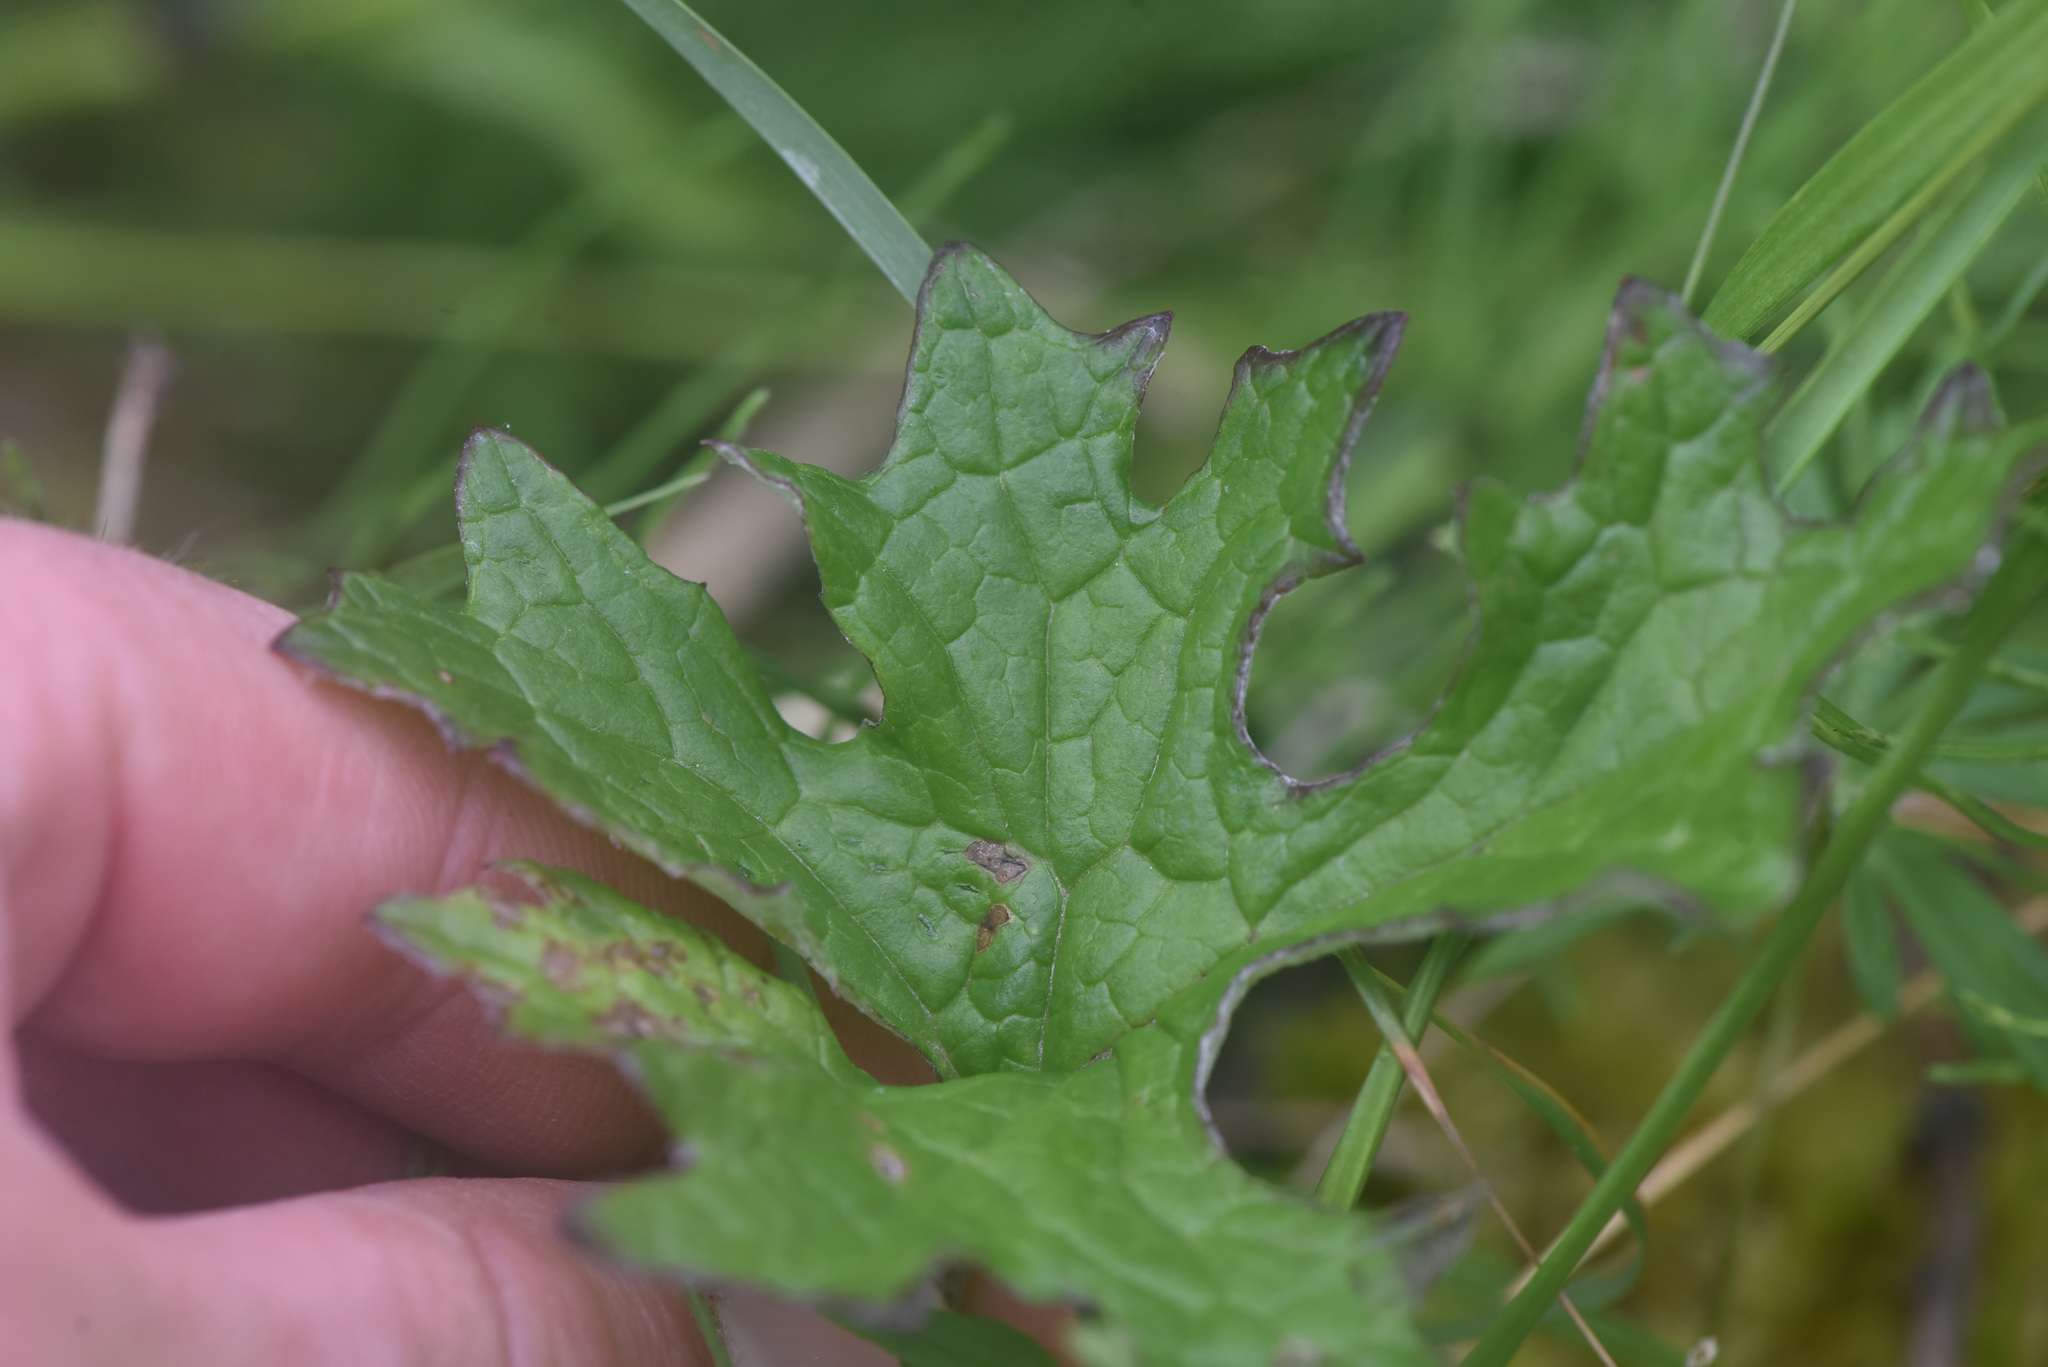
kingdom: Plantae
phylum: Tracheophyta
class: Magnoliopsida
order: Asterales
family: Asteraceae
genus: Petasites
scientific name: Petasites frigidus
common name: Arctic butterbur
